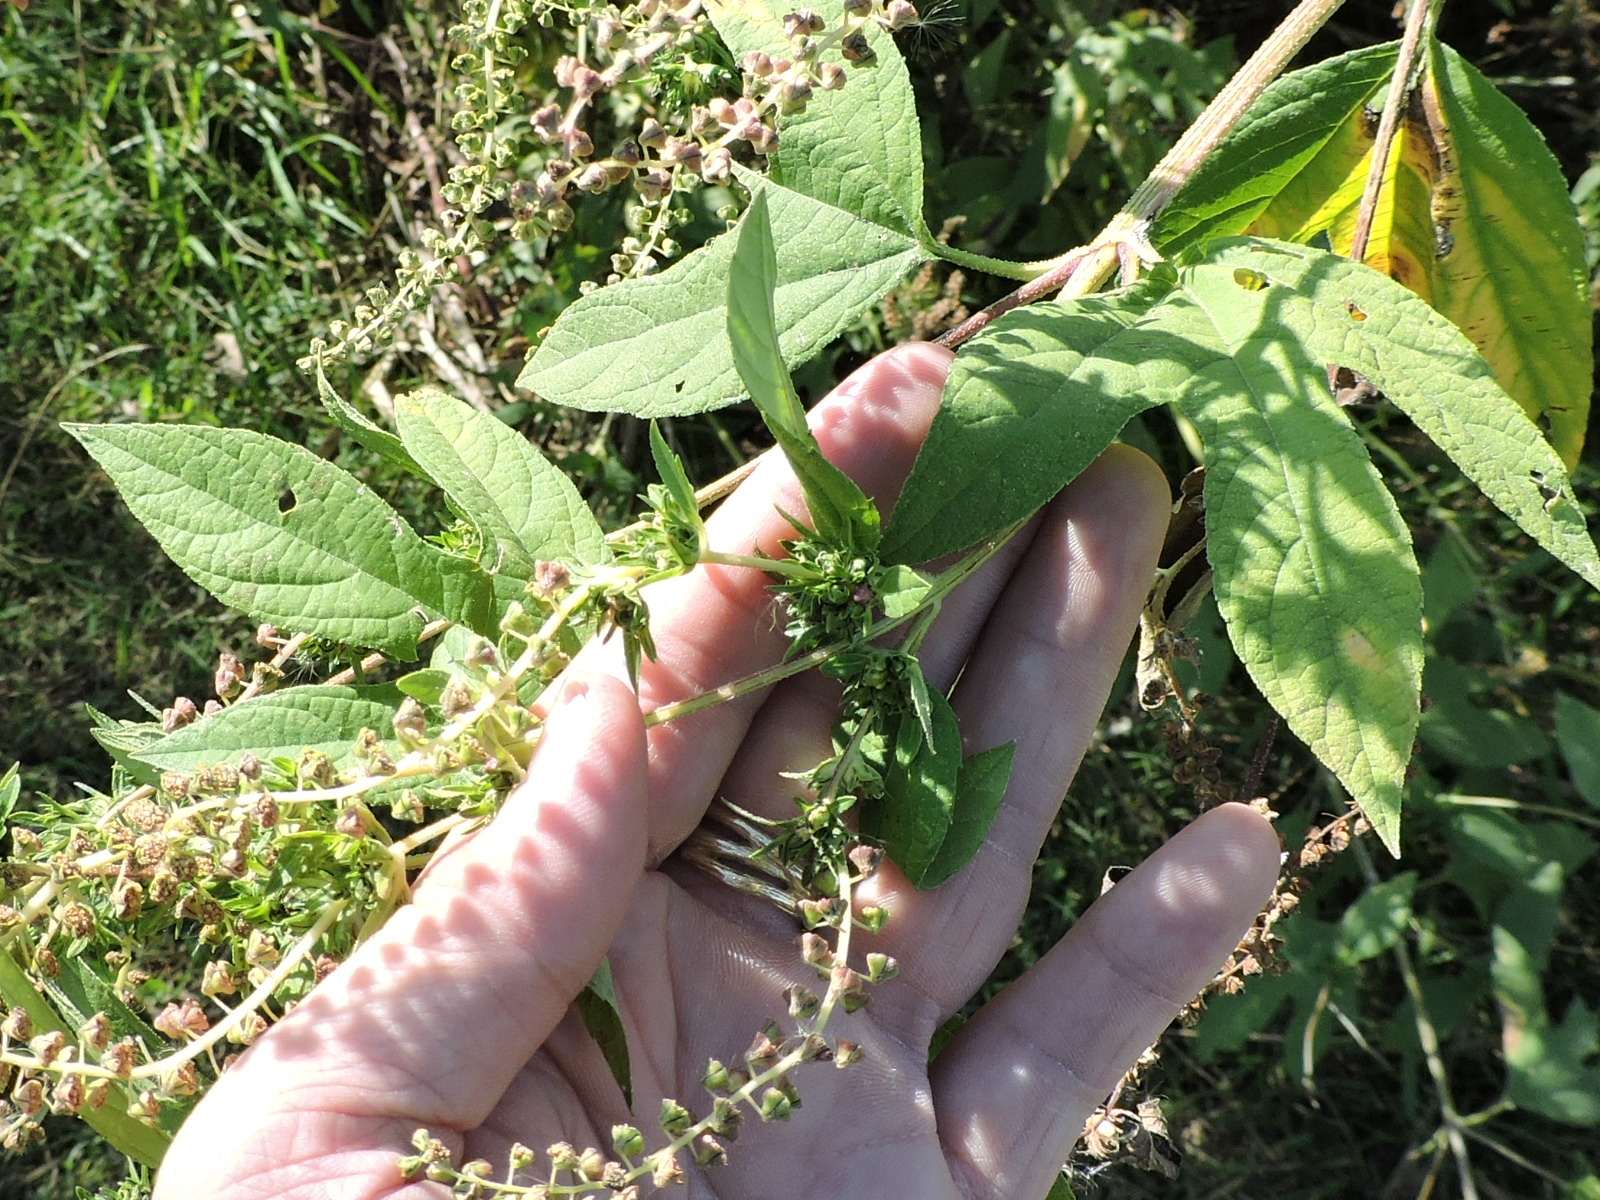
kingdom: Plantae
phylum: Tracheophyta
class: Magnoliopsida
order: Asterales
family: Asteraceae
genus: Ambrosia
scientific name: Ambrosia trifida
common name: Giant ragweed
